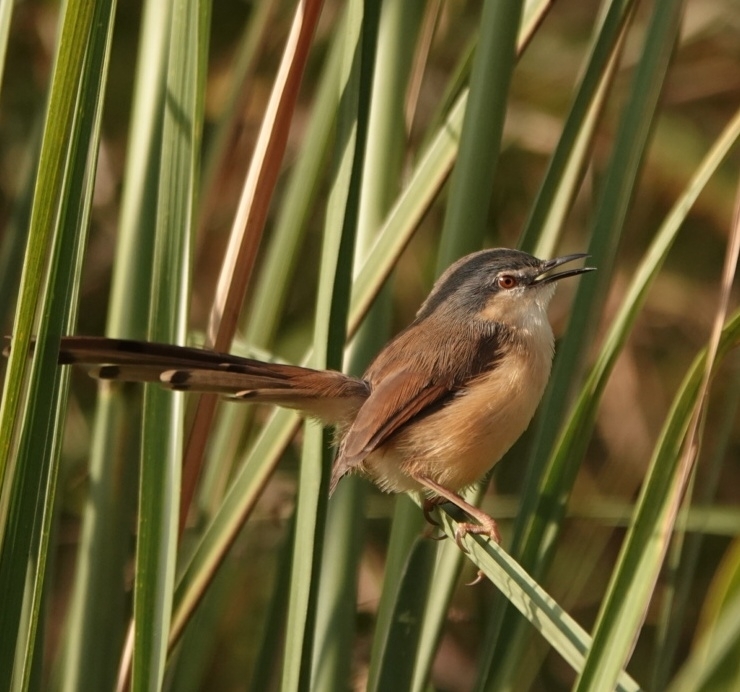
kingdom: Animalia
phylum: Chordata
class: Aves
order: Passeriformes
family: Cisticolidae
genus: Prinia
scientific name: Prinia socialis
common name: Ashy prinia
